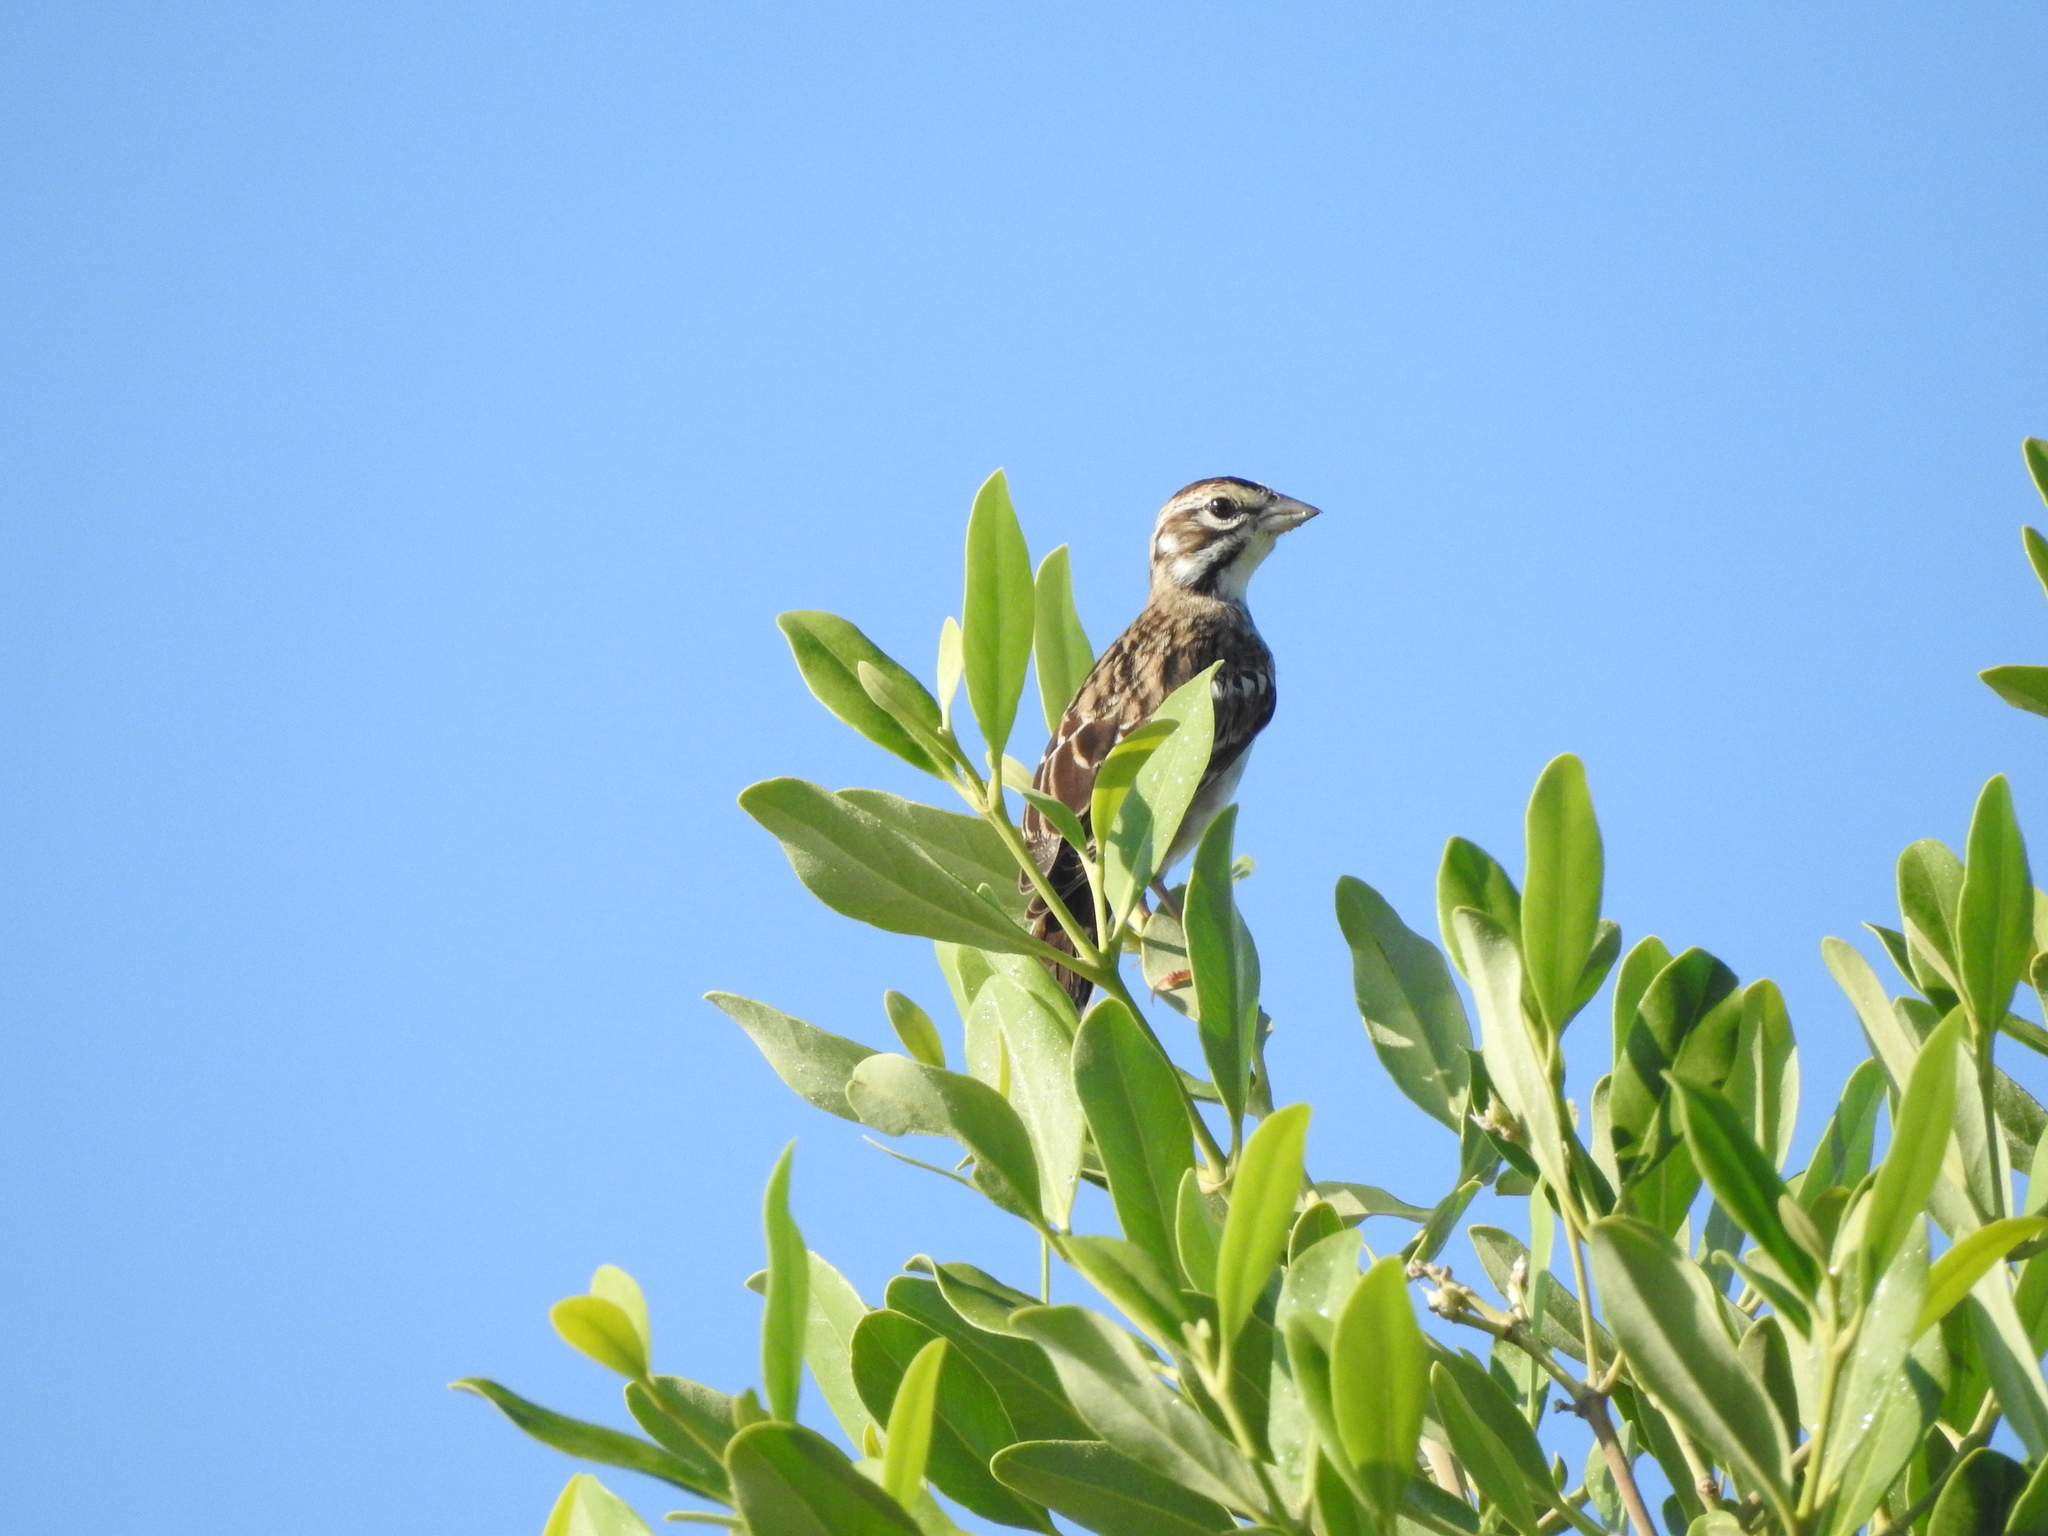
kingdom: Animalia
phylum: Chordata
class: Aves
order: Passeriformes
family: Passerellidae
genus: Chondestes
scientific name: Chondestes grammacus
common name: Lark sparrow
